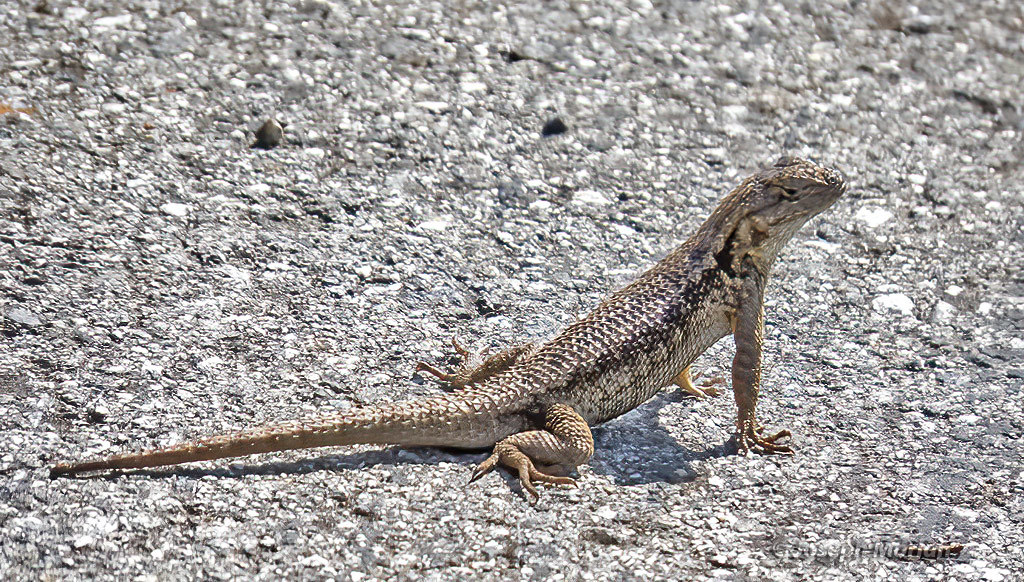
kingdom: Animalia
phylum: Chordata
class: Squamata
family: Phrynosomatidae
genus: Sceloporus
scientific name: Sceloporus occidentalis
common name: Western fence lizard
